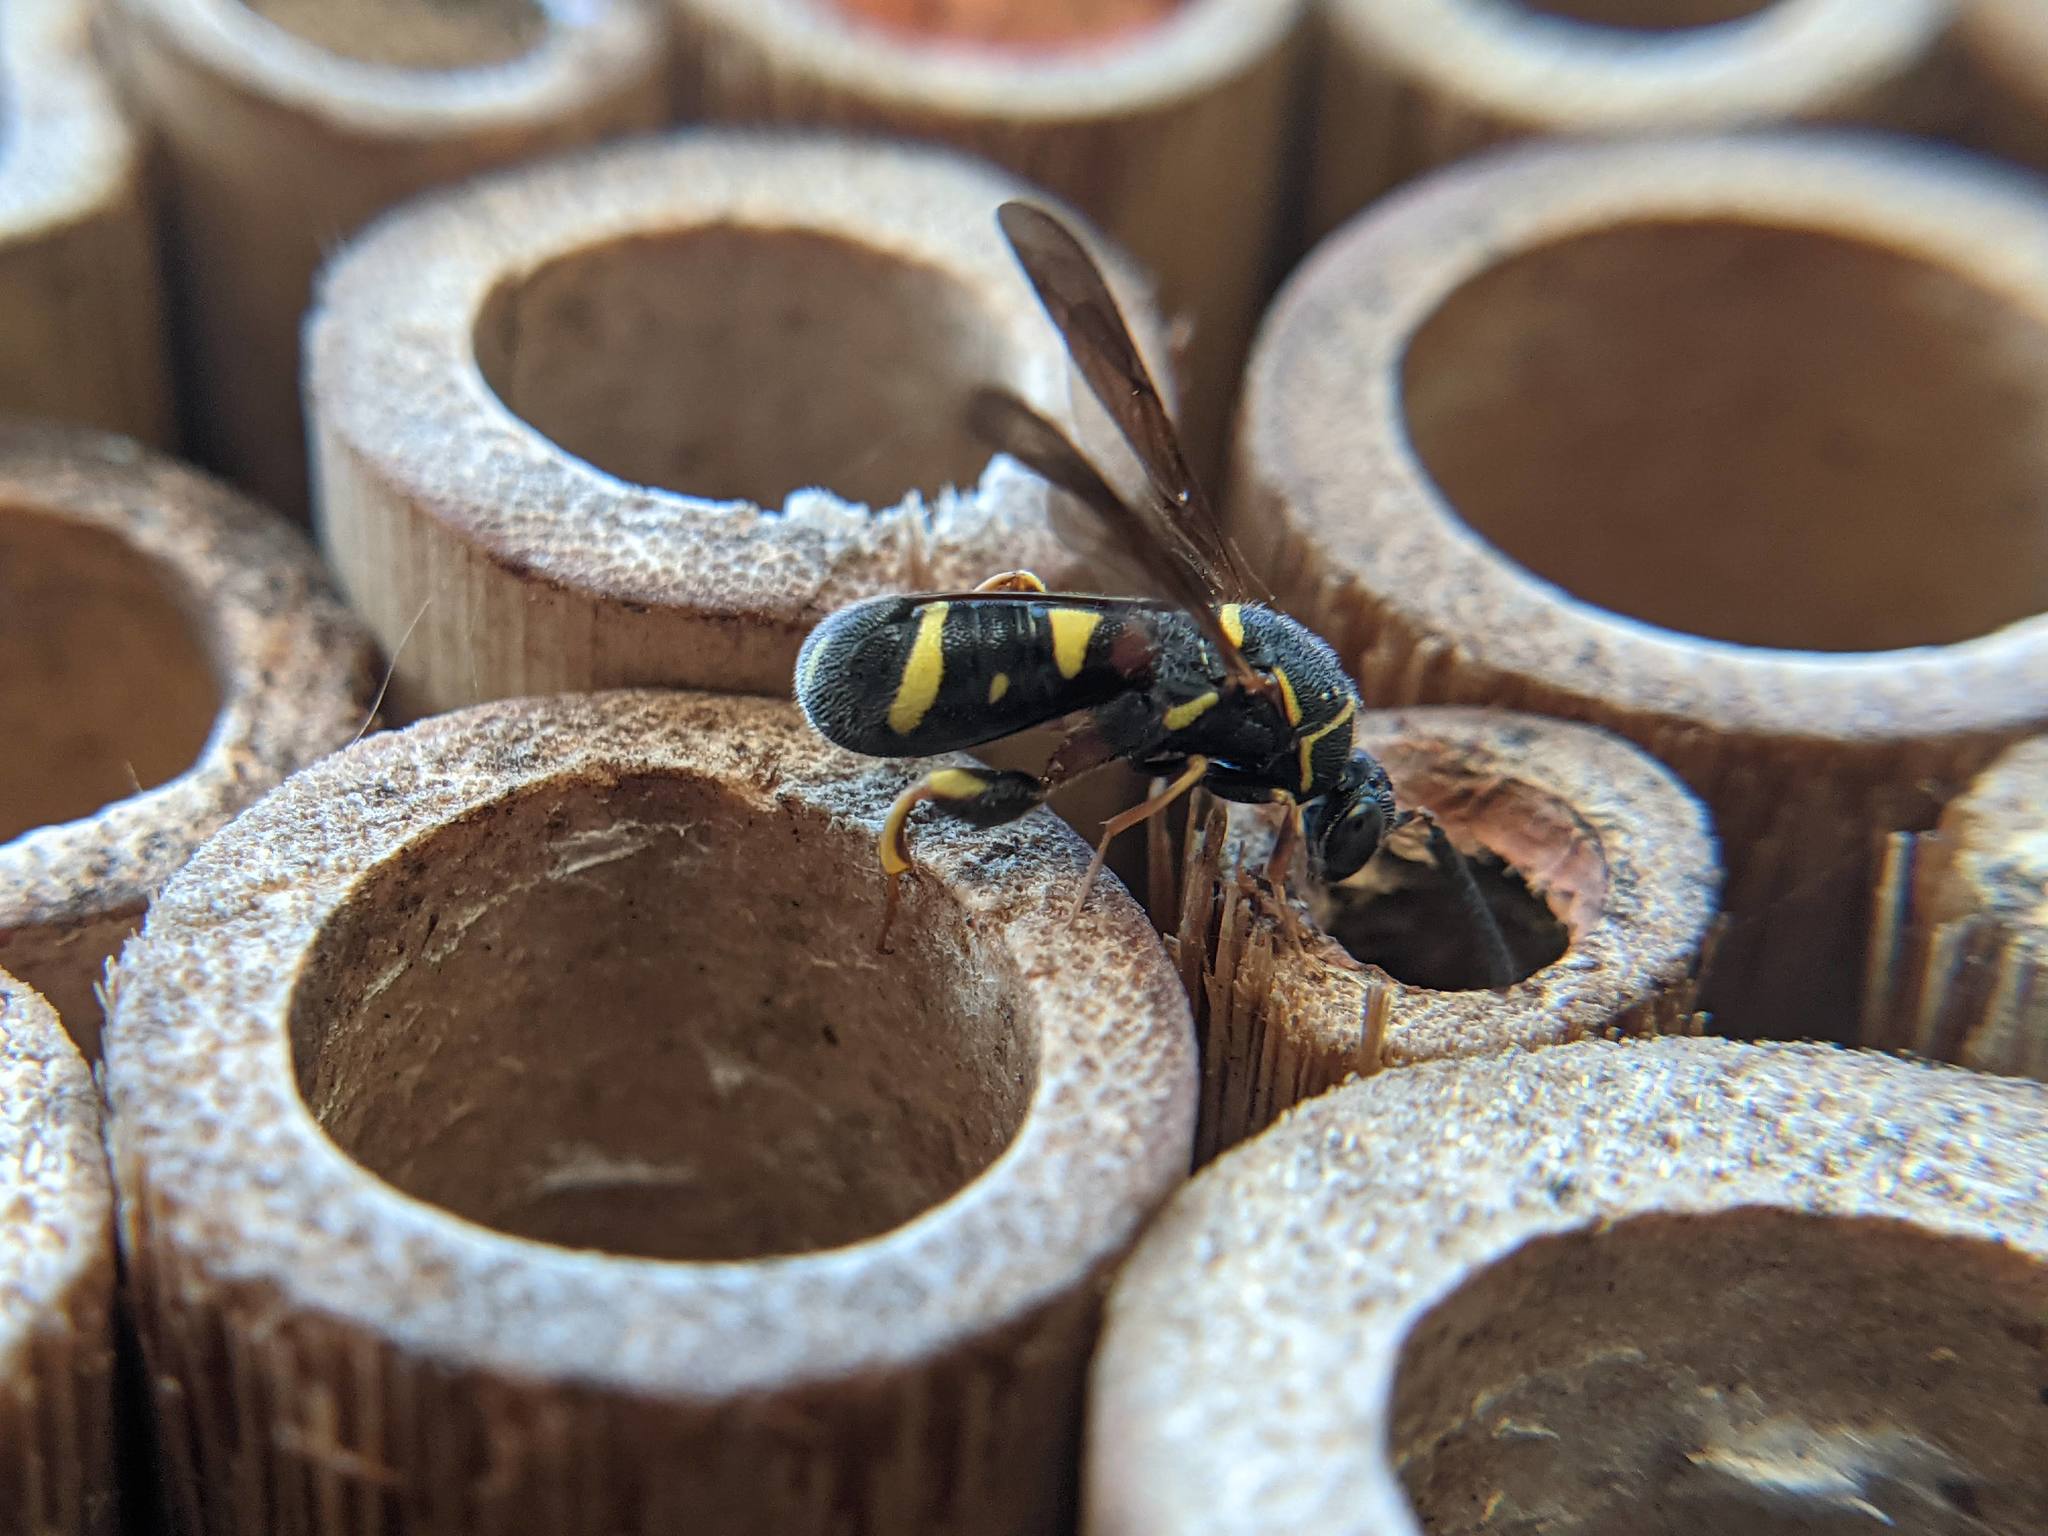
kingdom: Animalia
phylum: Arthropoda
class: Insecta
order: Hymenoptera
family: Leucospidae
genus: Leucospis
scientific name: Leucospis affinis
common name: Wasp
